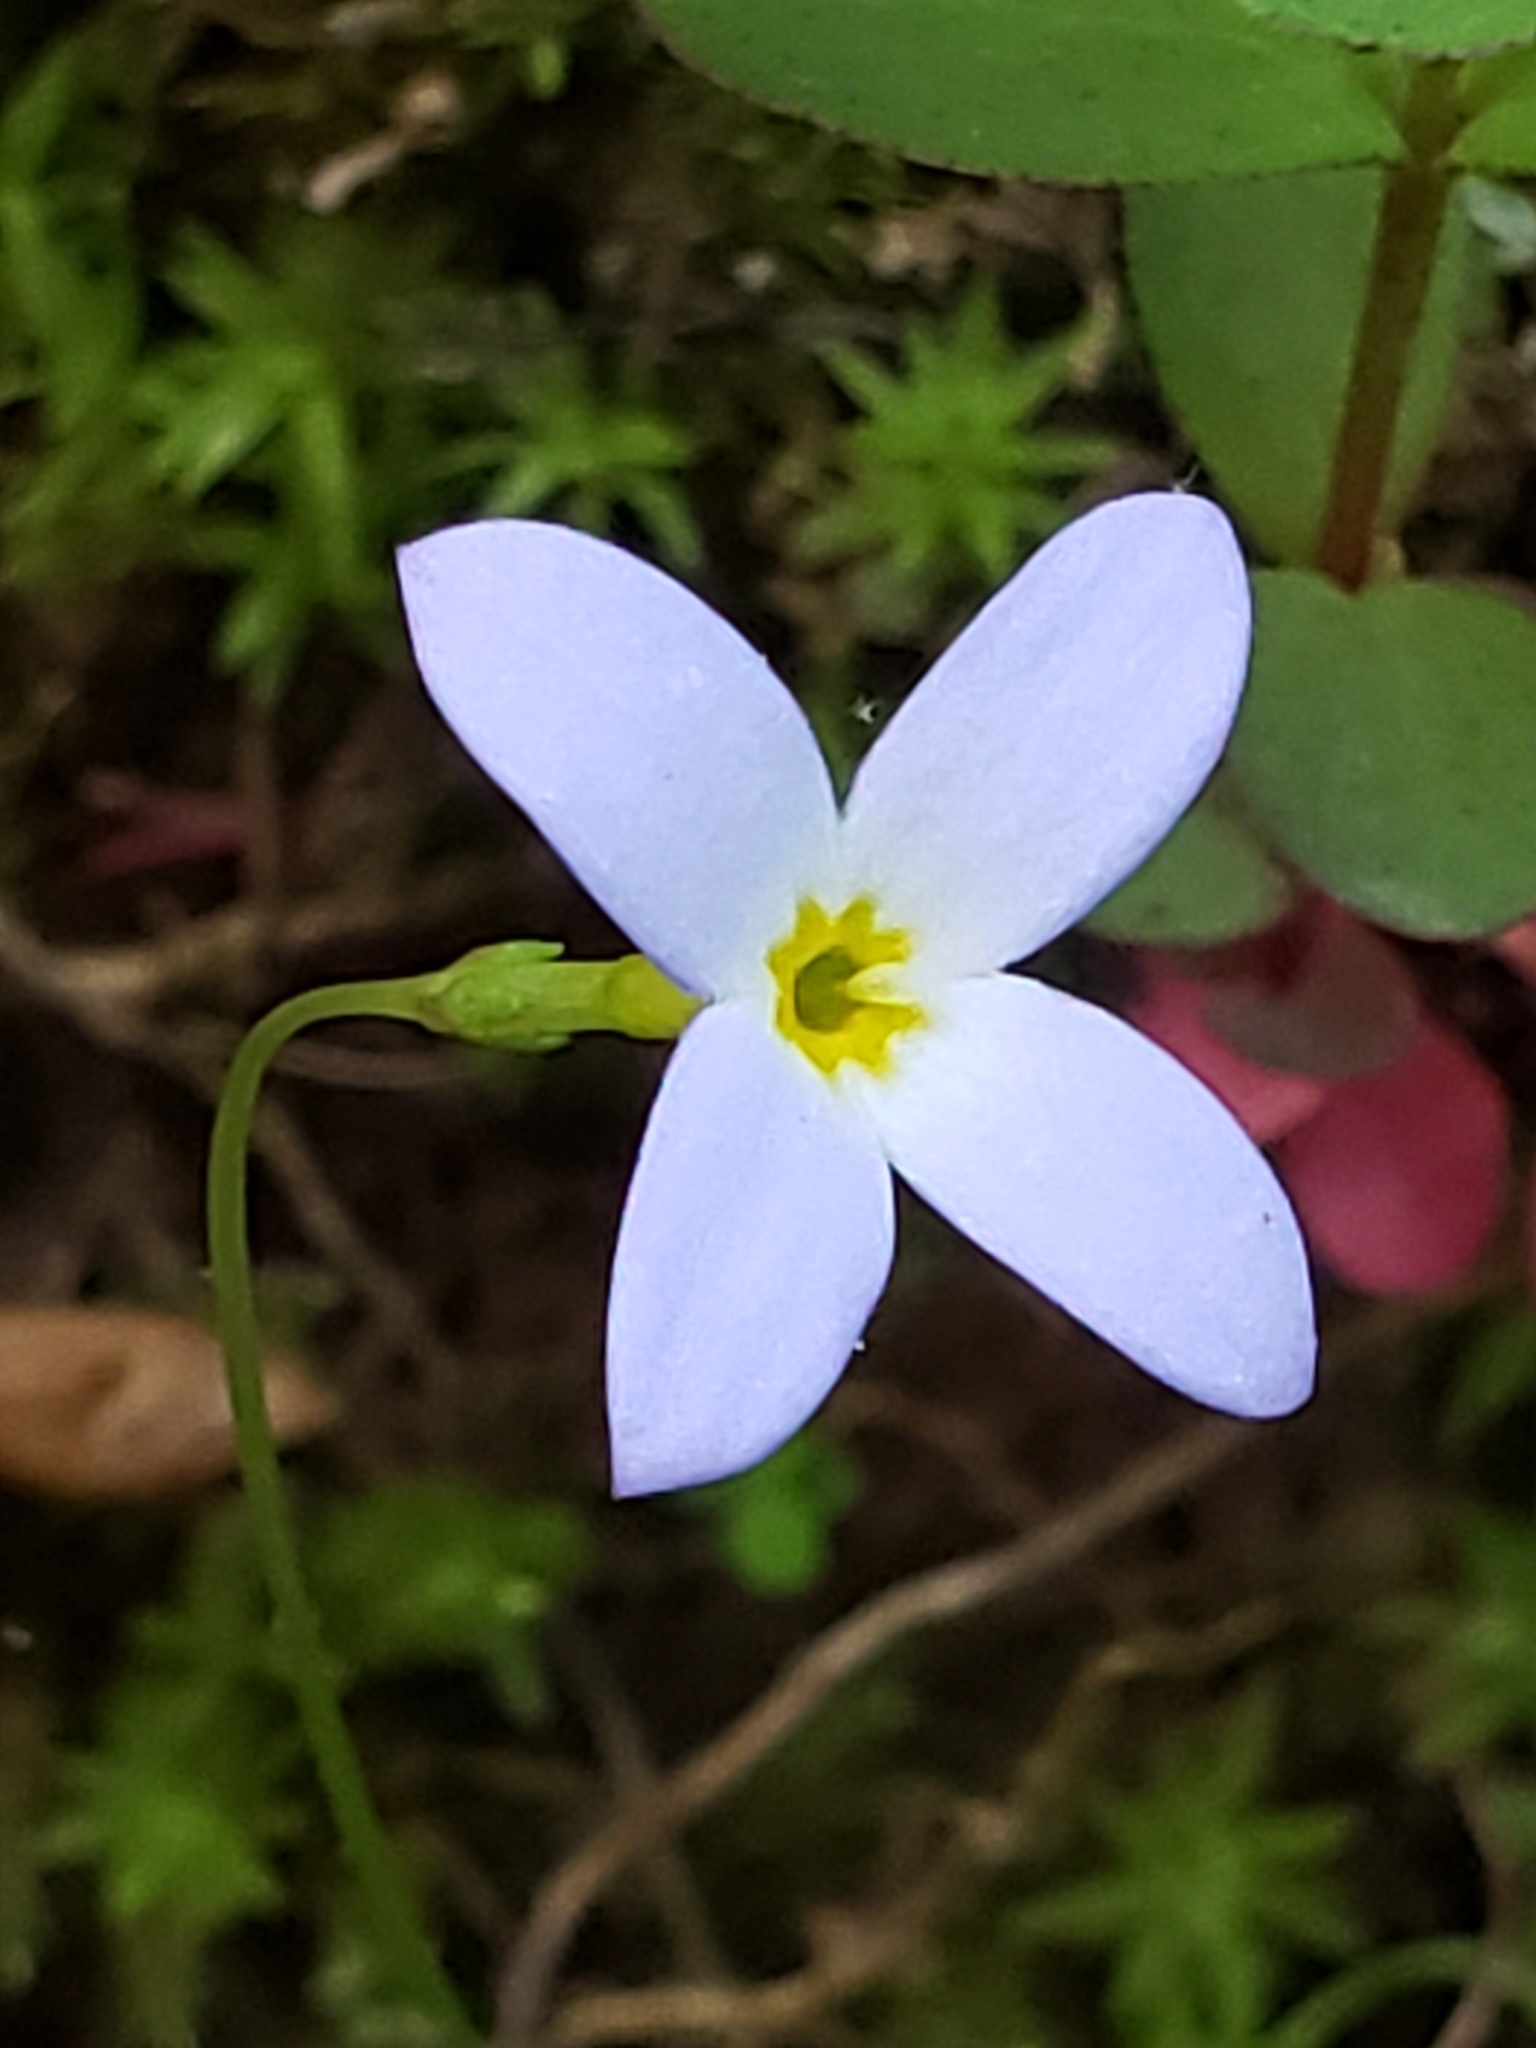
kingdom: Plantae
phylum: Tracheophyta
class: Magnoliopsida
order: Gentianales
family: Rubiaceae
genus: Houstonia
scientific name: Houstonia caerulea
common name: Bluets
